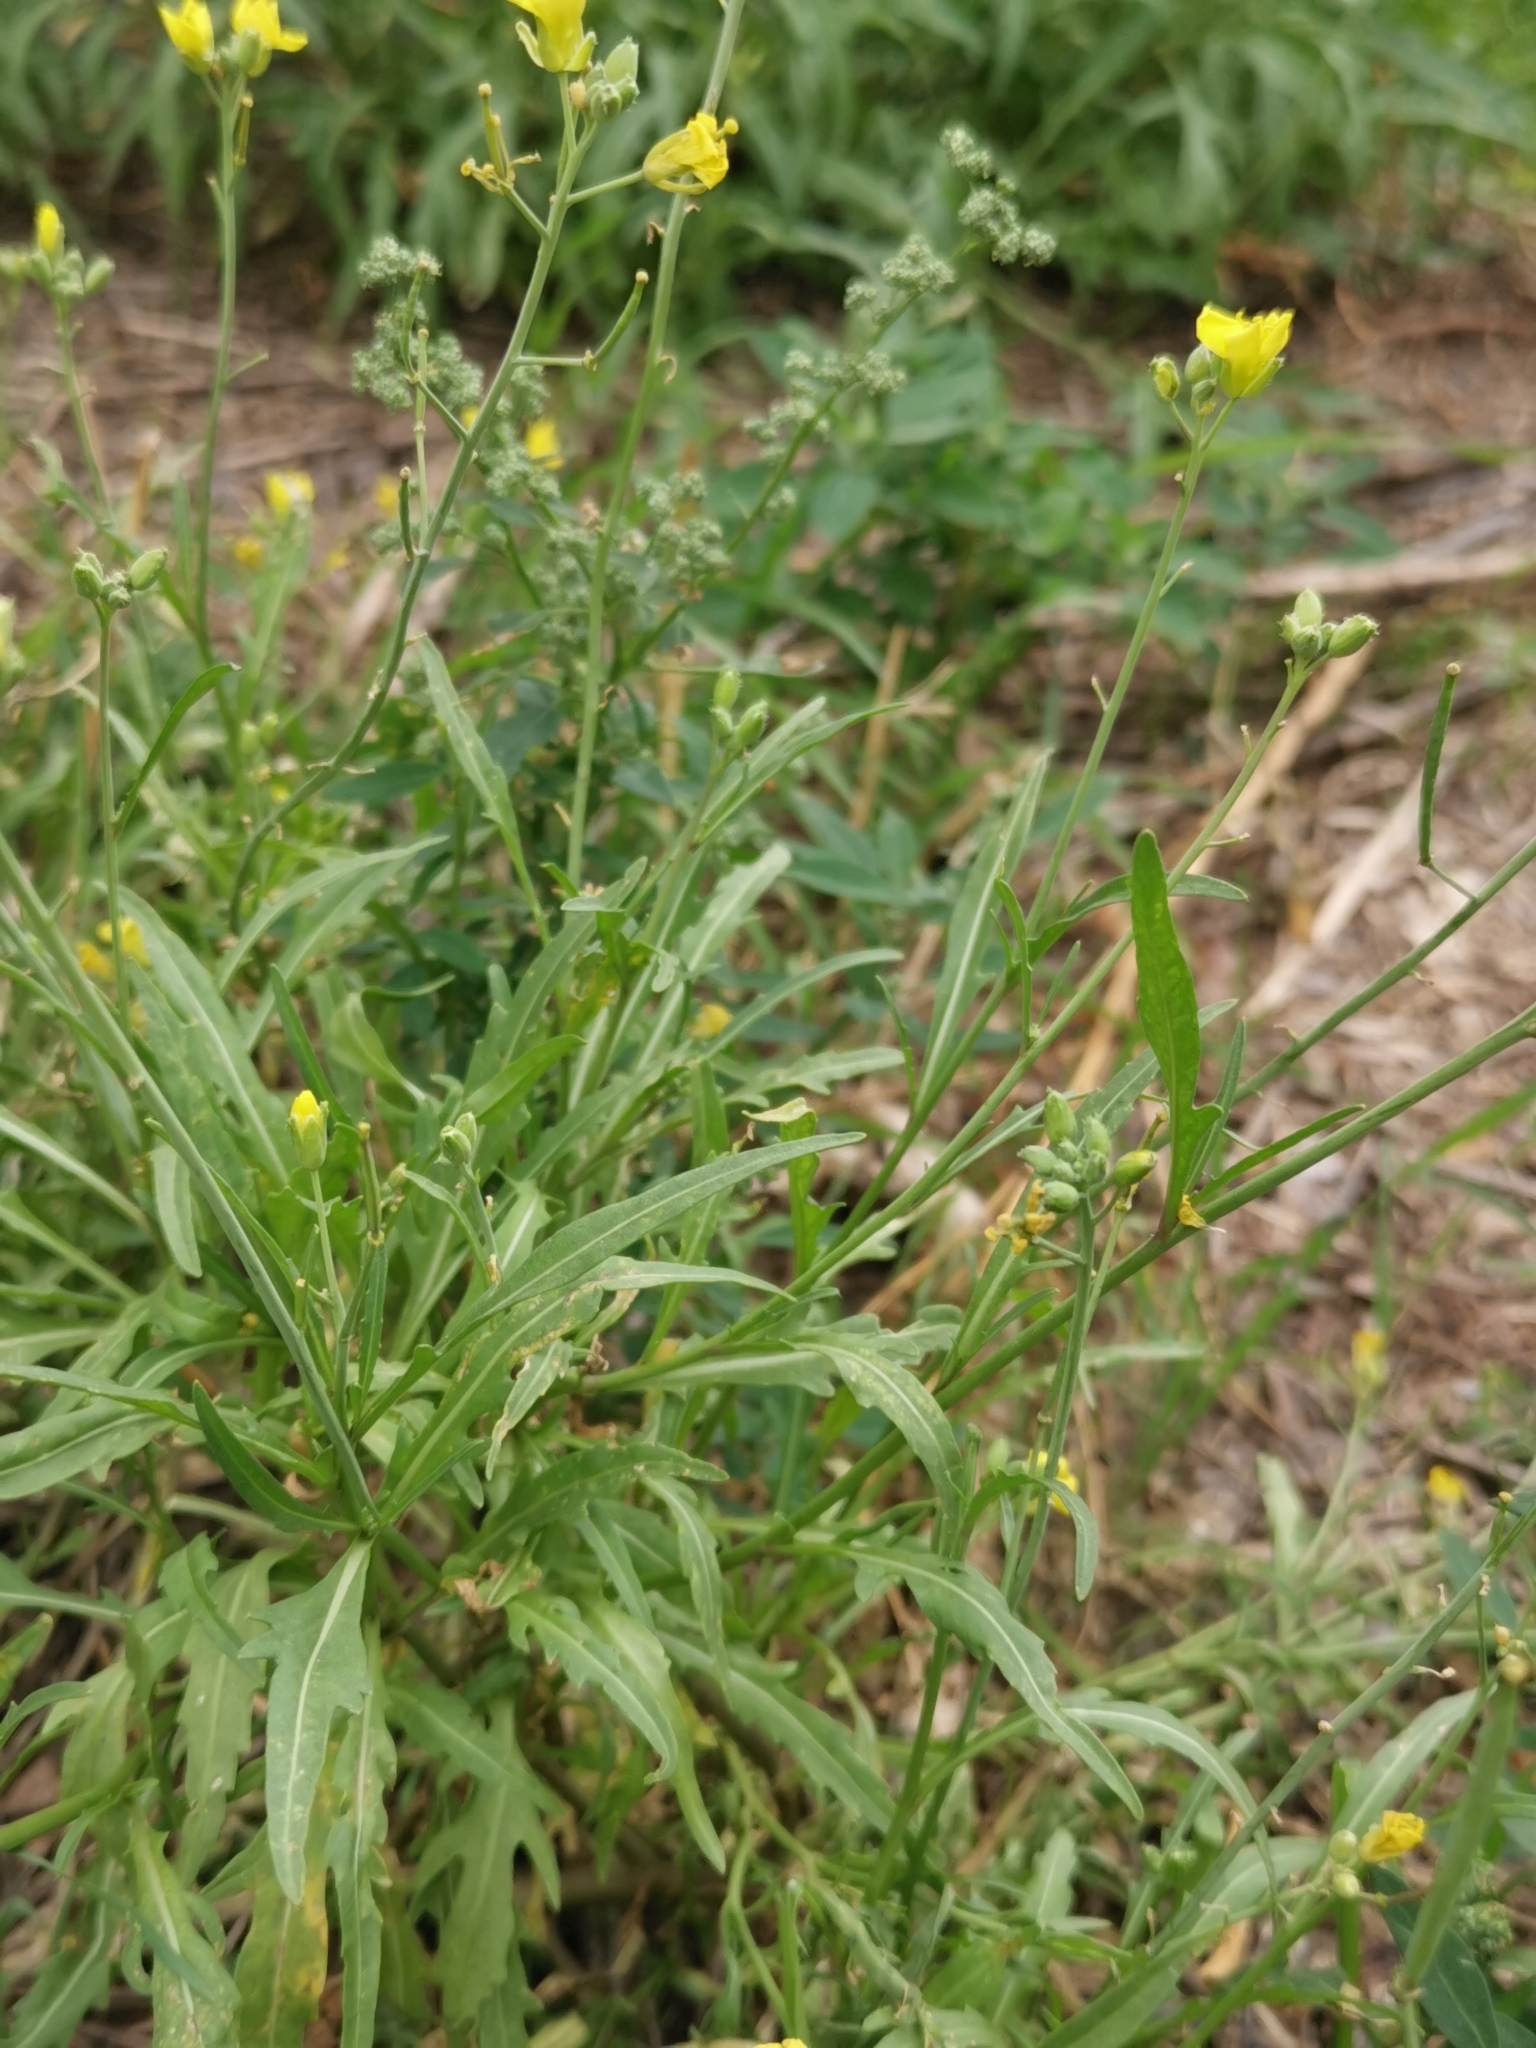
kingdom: Plantae
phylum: Tracheophyta
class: Magnoliopsida
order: Brassicales
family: Brassicaceae
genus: Diplotaxis
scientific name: Diplotaxis tenuifolia
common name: Perennial wall-rocket
